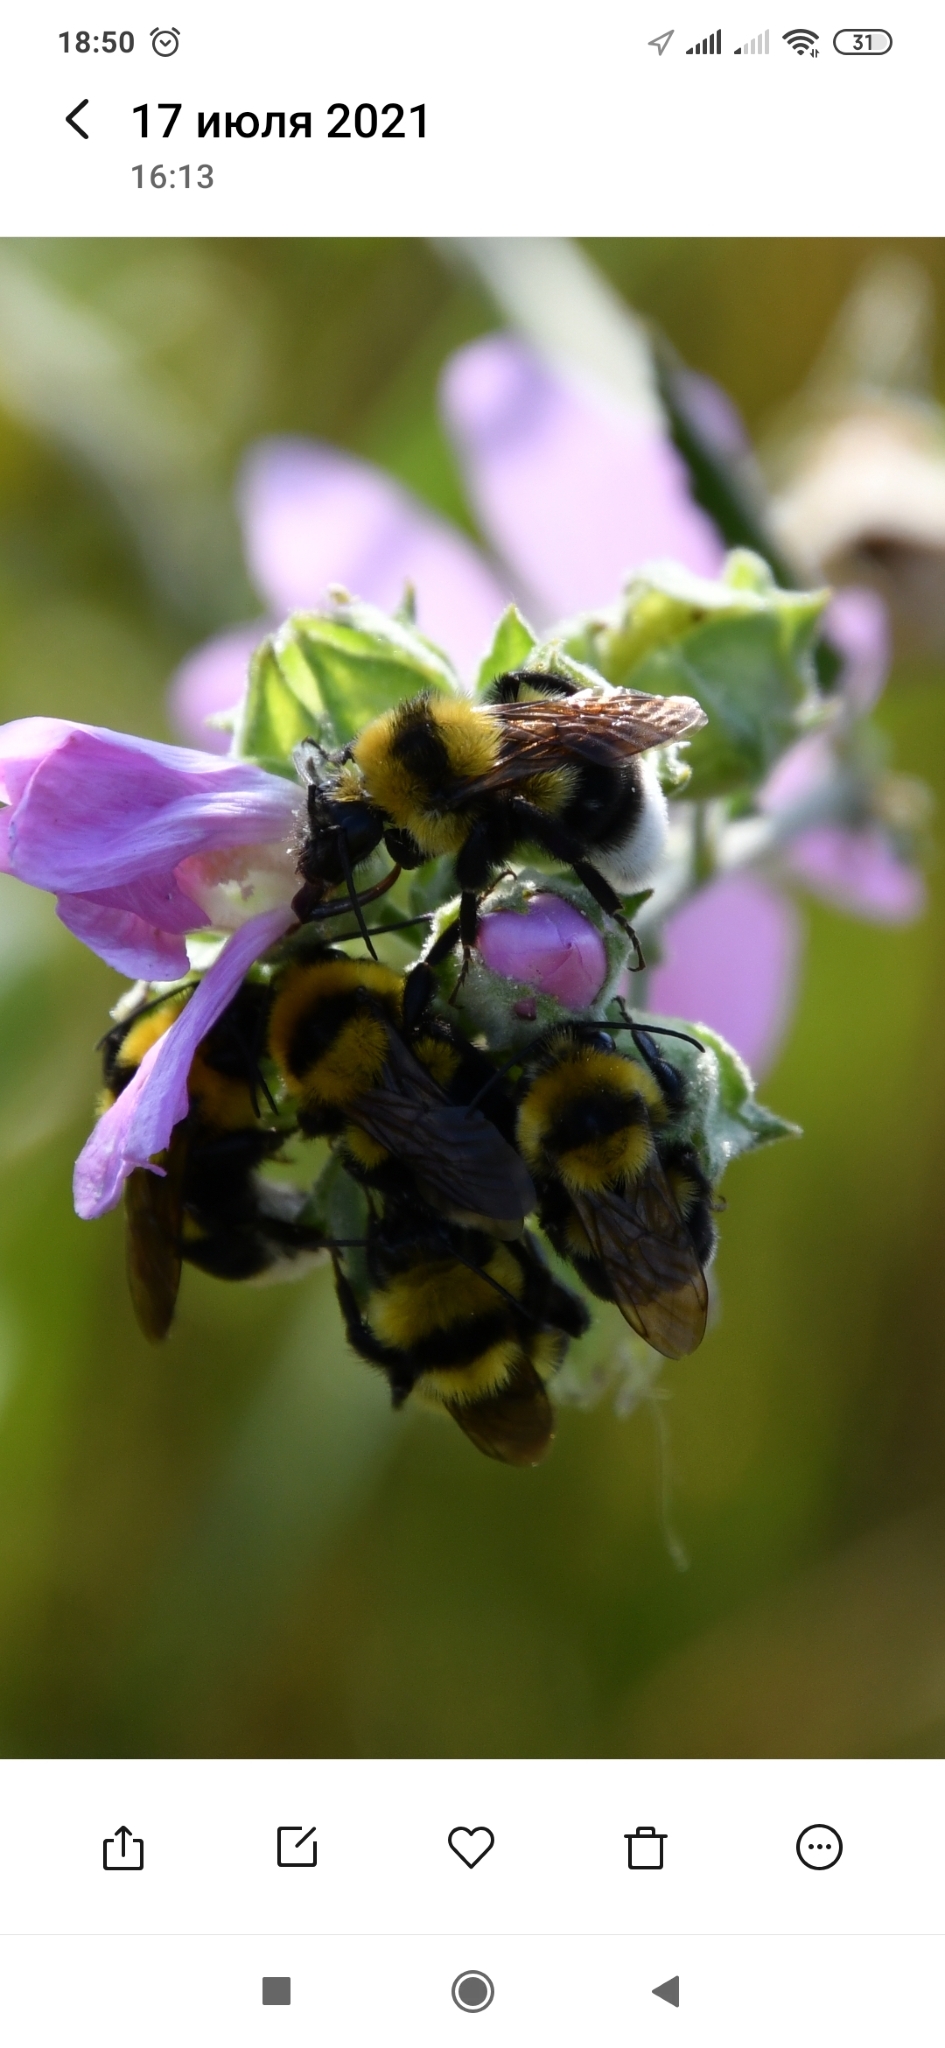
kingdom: Animalia
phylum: Arthropoda
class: Insecta
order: Hymenoptera
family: Apidae
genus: Bombus
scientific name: Bombus argillaceus
